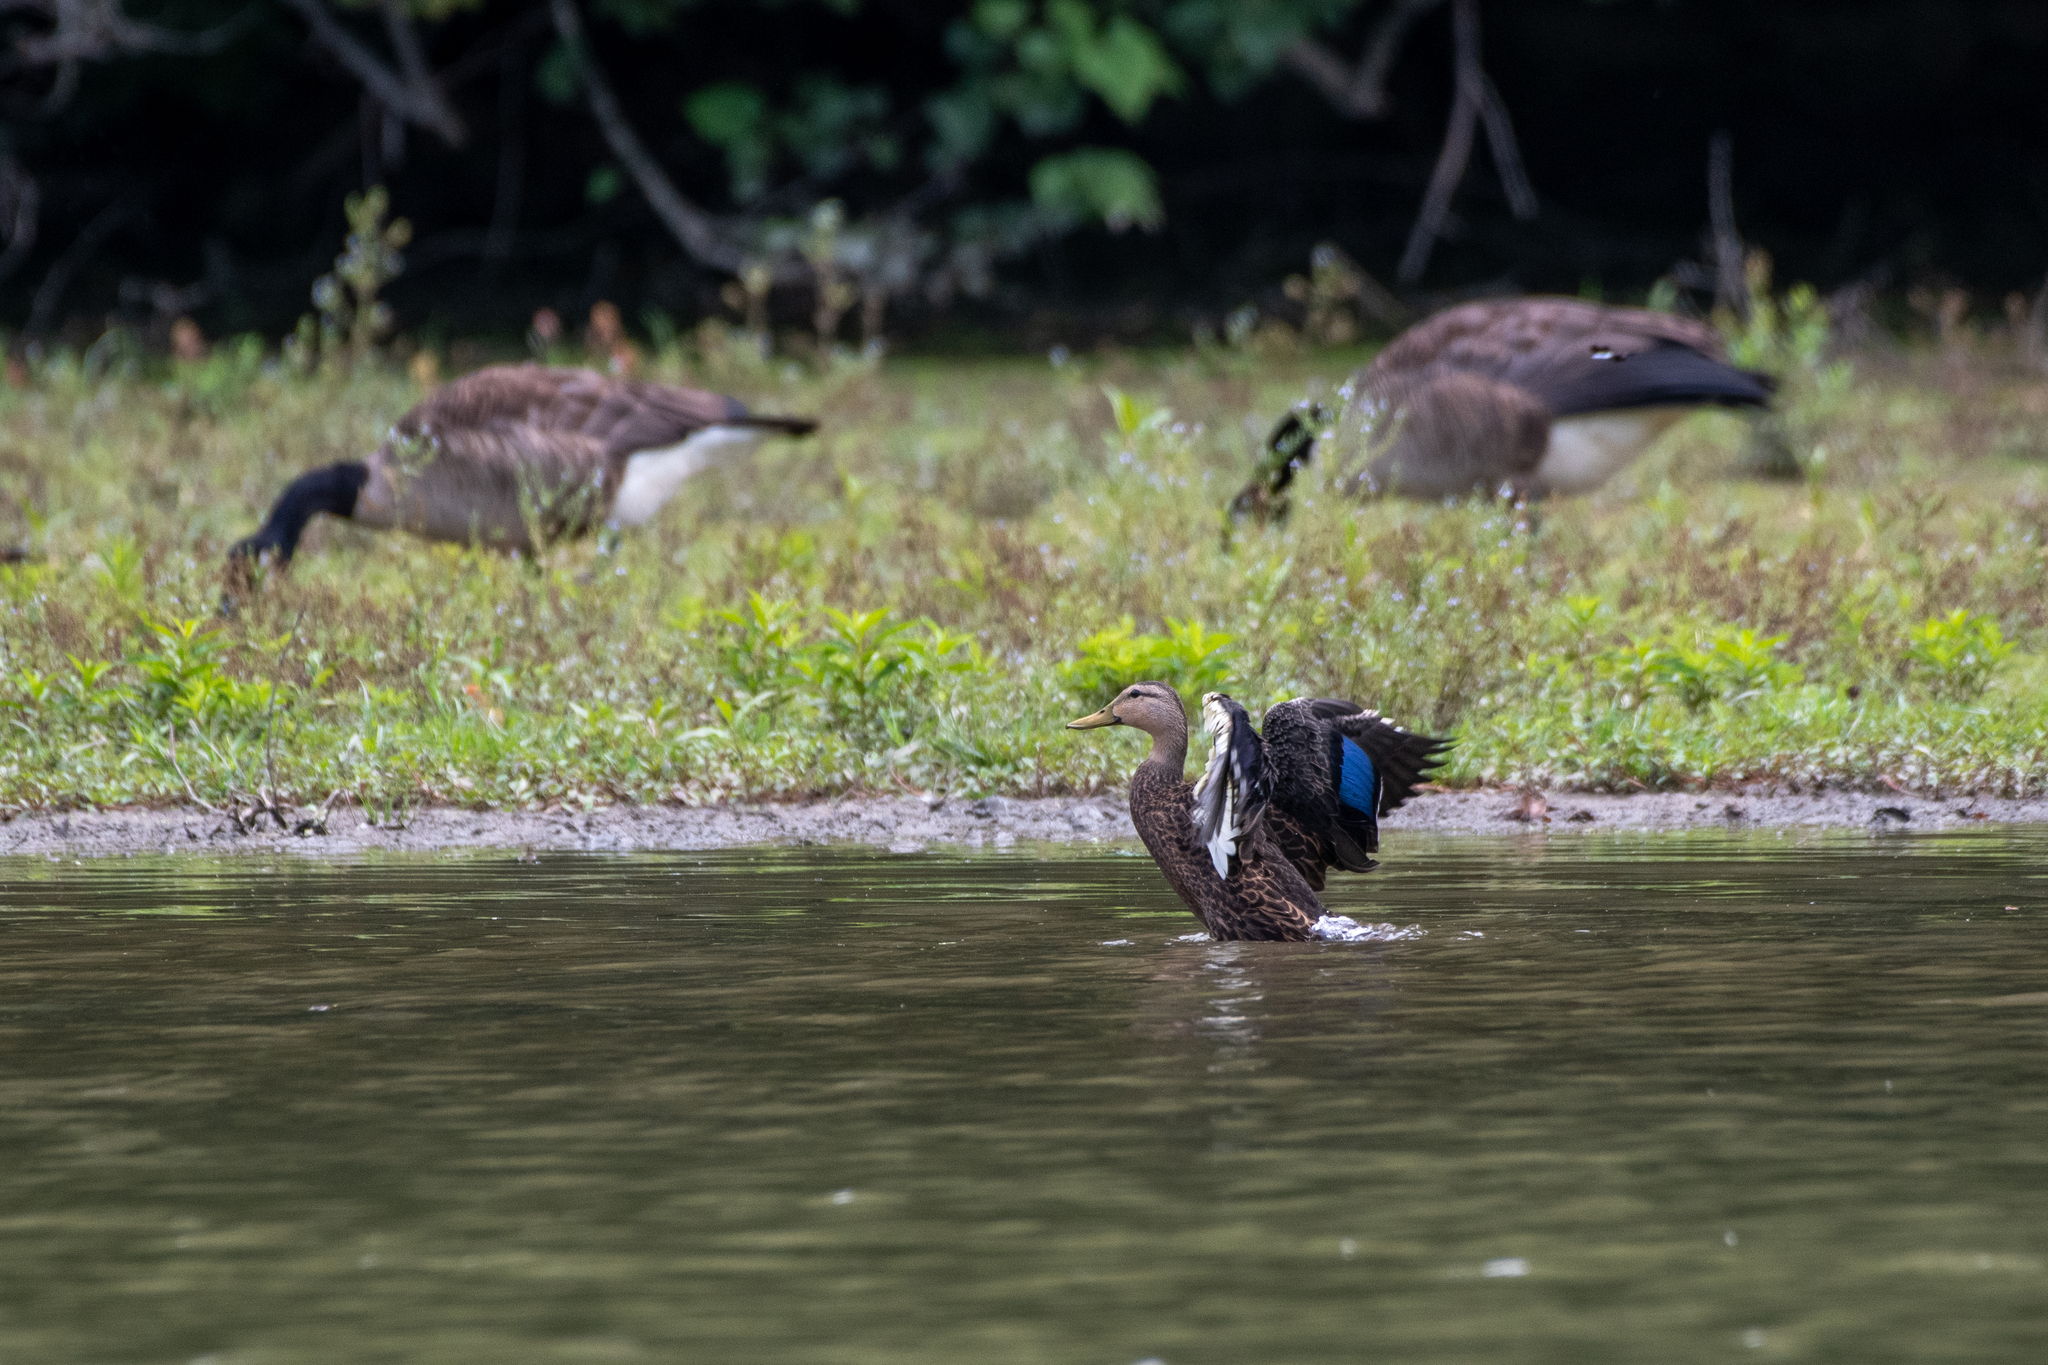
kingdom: Animalia
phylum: Chordata
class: Aves
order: Anseriformes
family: Anatidae
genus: Anas
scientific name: Anas fulvigula
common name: Mottled duck
